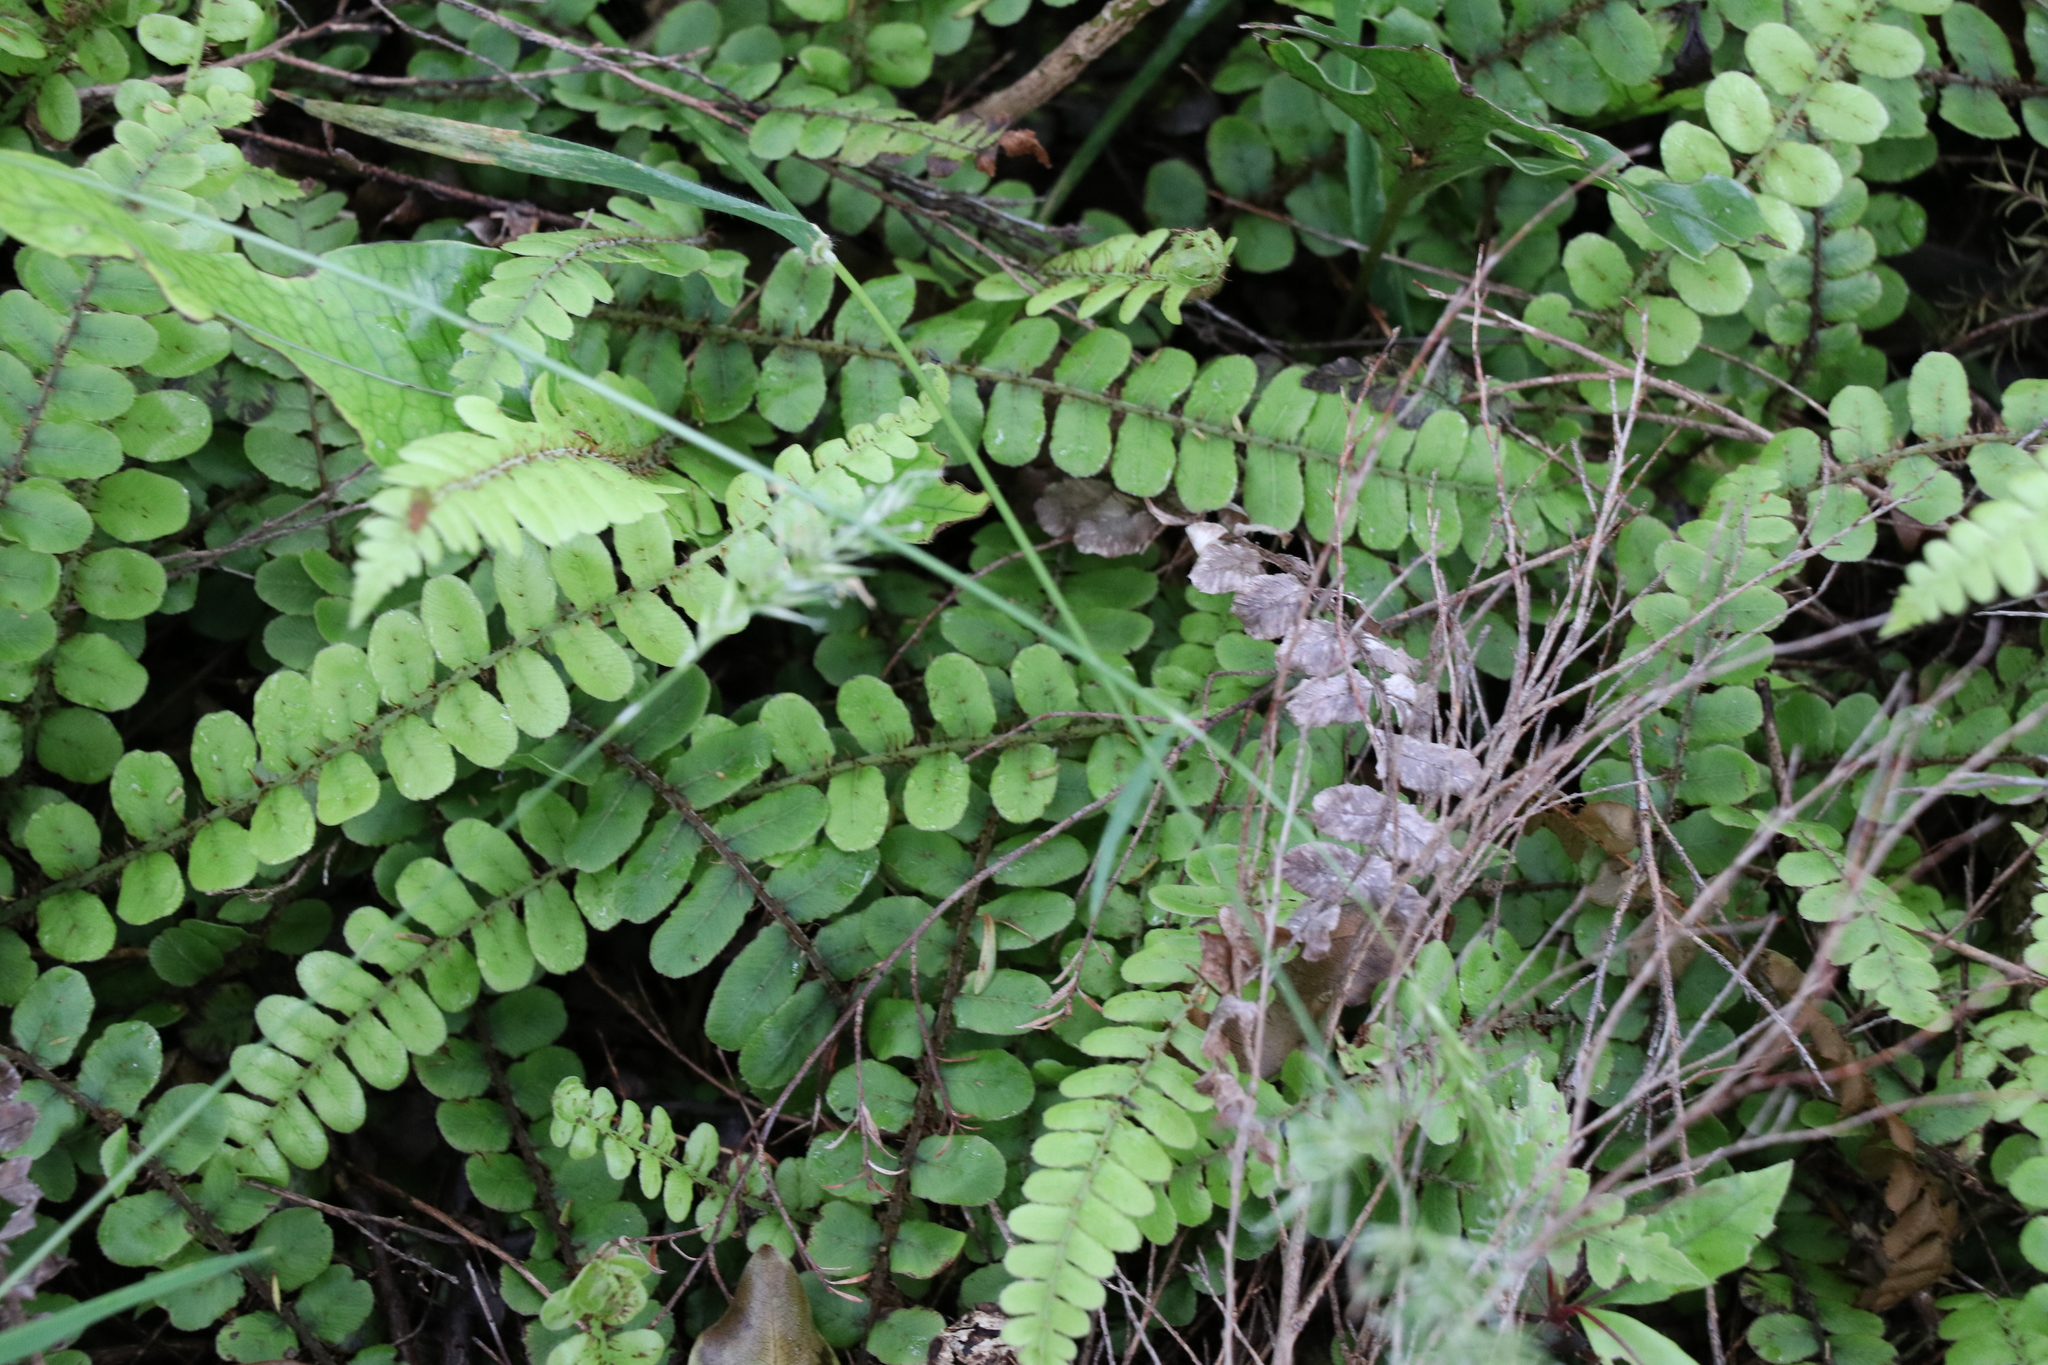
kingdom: Plantae
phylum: Tracheophyta
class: Polypodiopsida
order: Polypodiales
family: Blechnaceae
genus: Cranfillia
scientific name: Cranfillia fluviatilis
